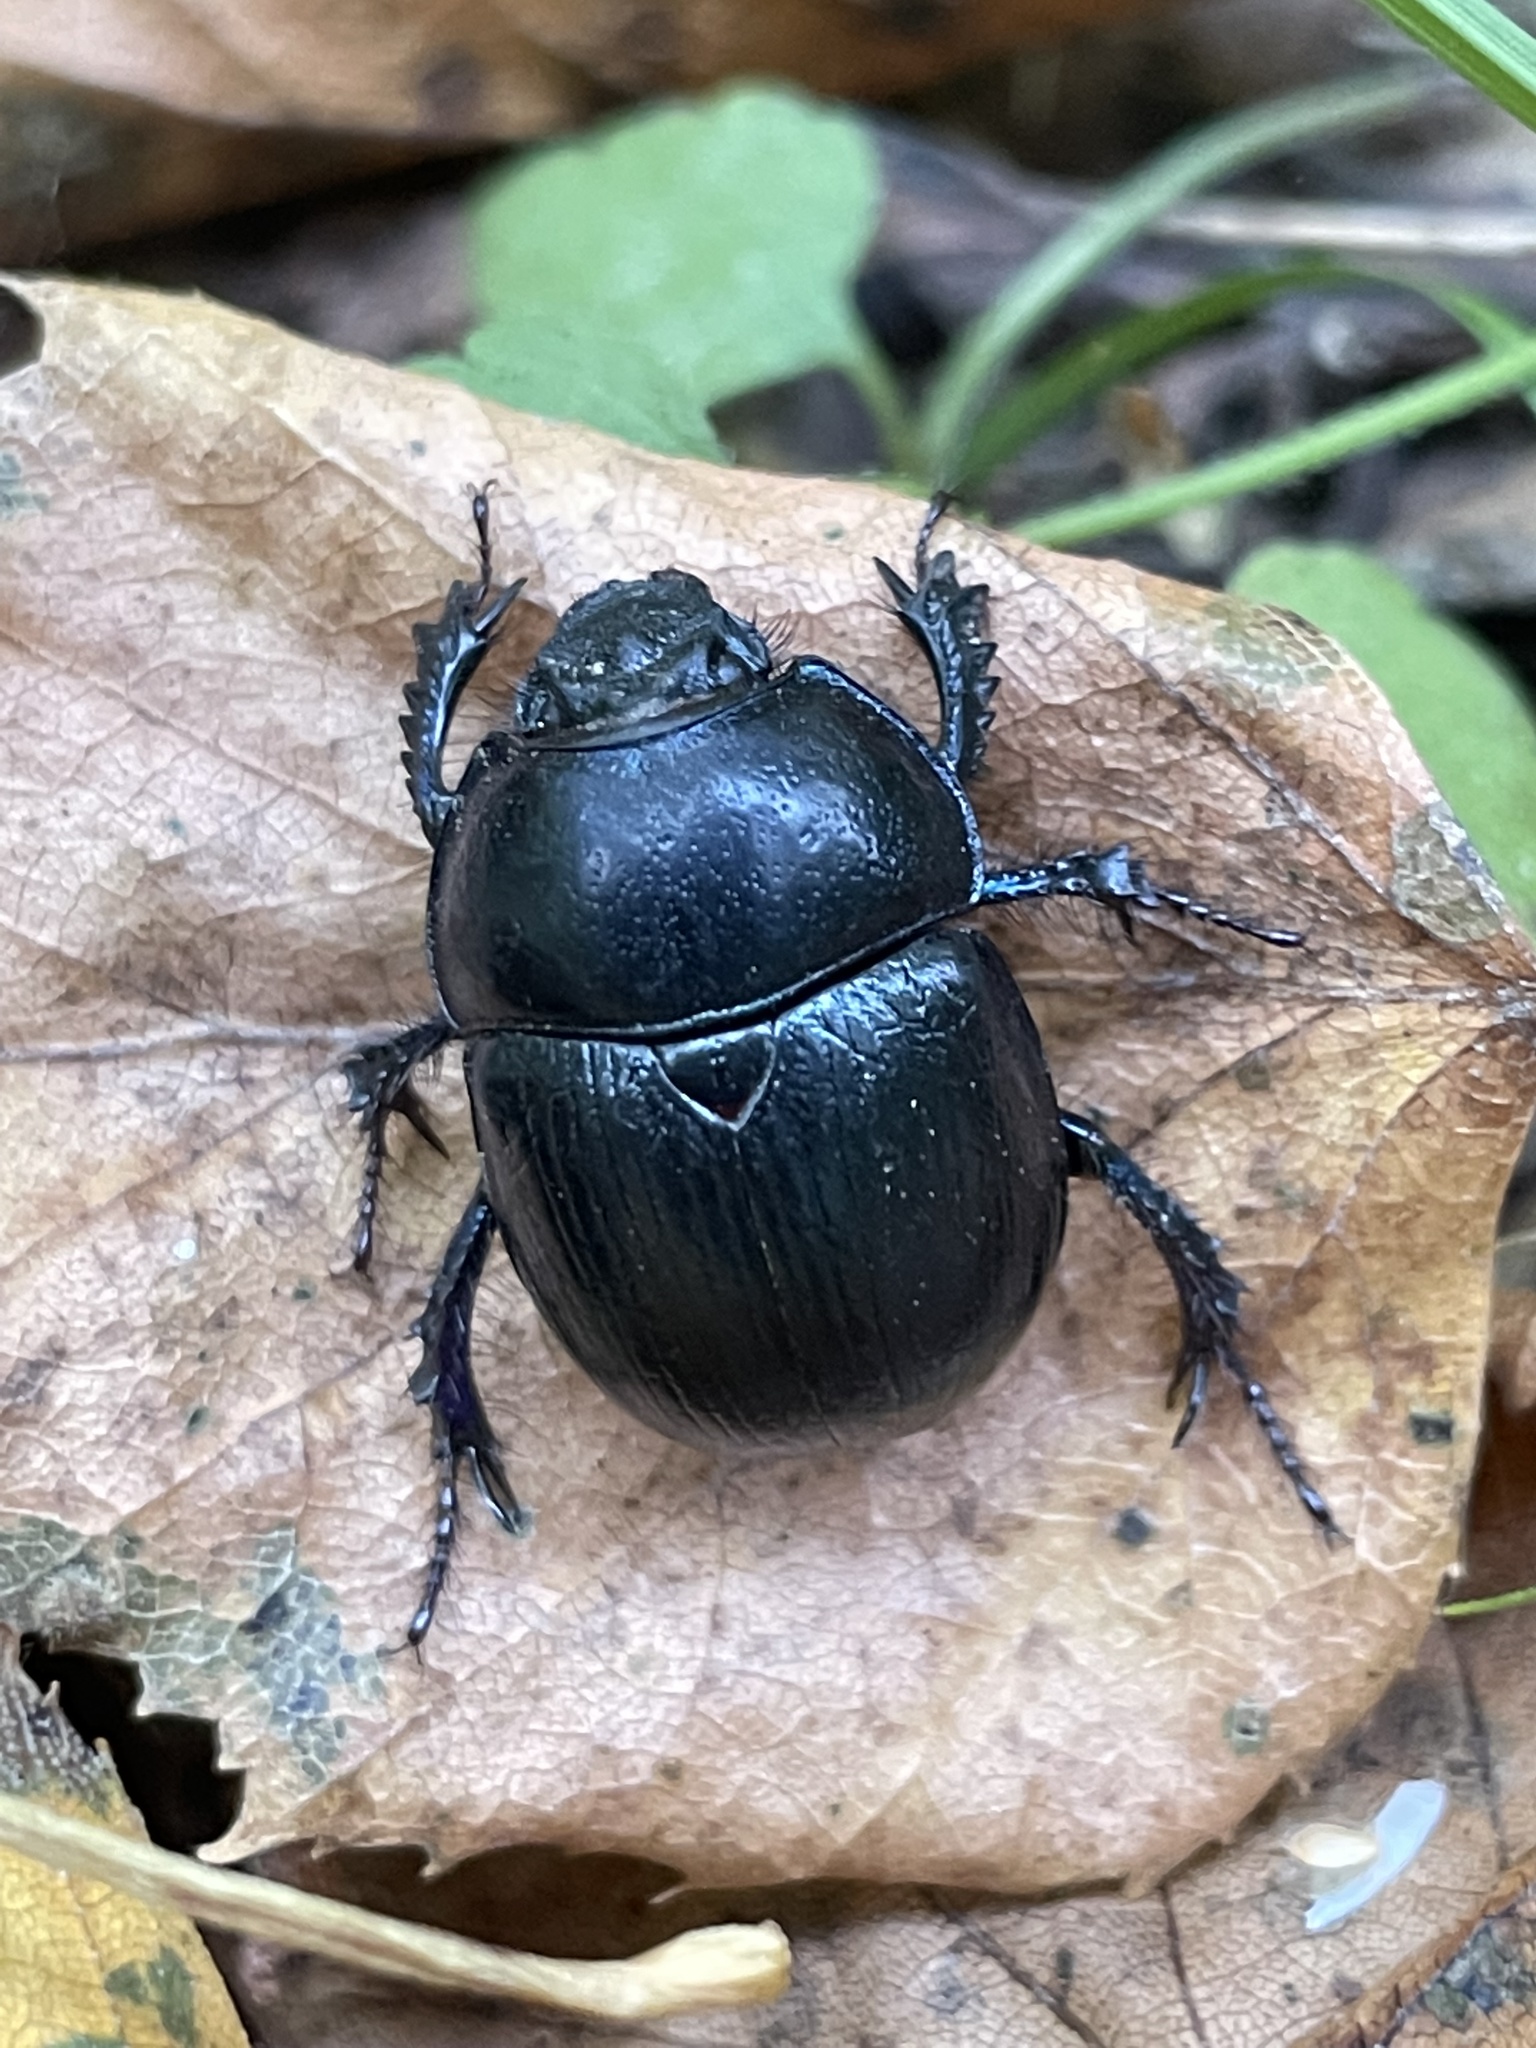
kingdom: Animalia
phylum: Arthropoda
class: Insecta
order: Coleoptera
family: Geotrupidae
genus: Anoplotrupes
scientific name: Anoplotrupes stercorosus
